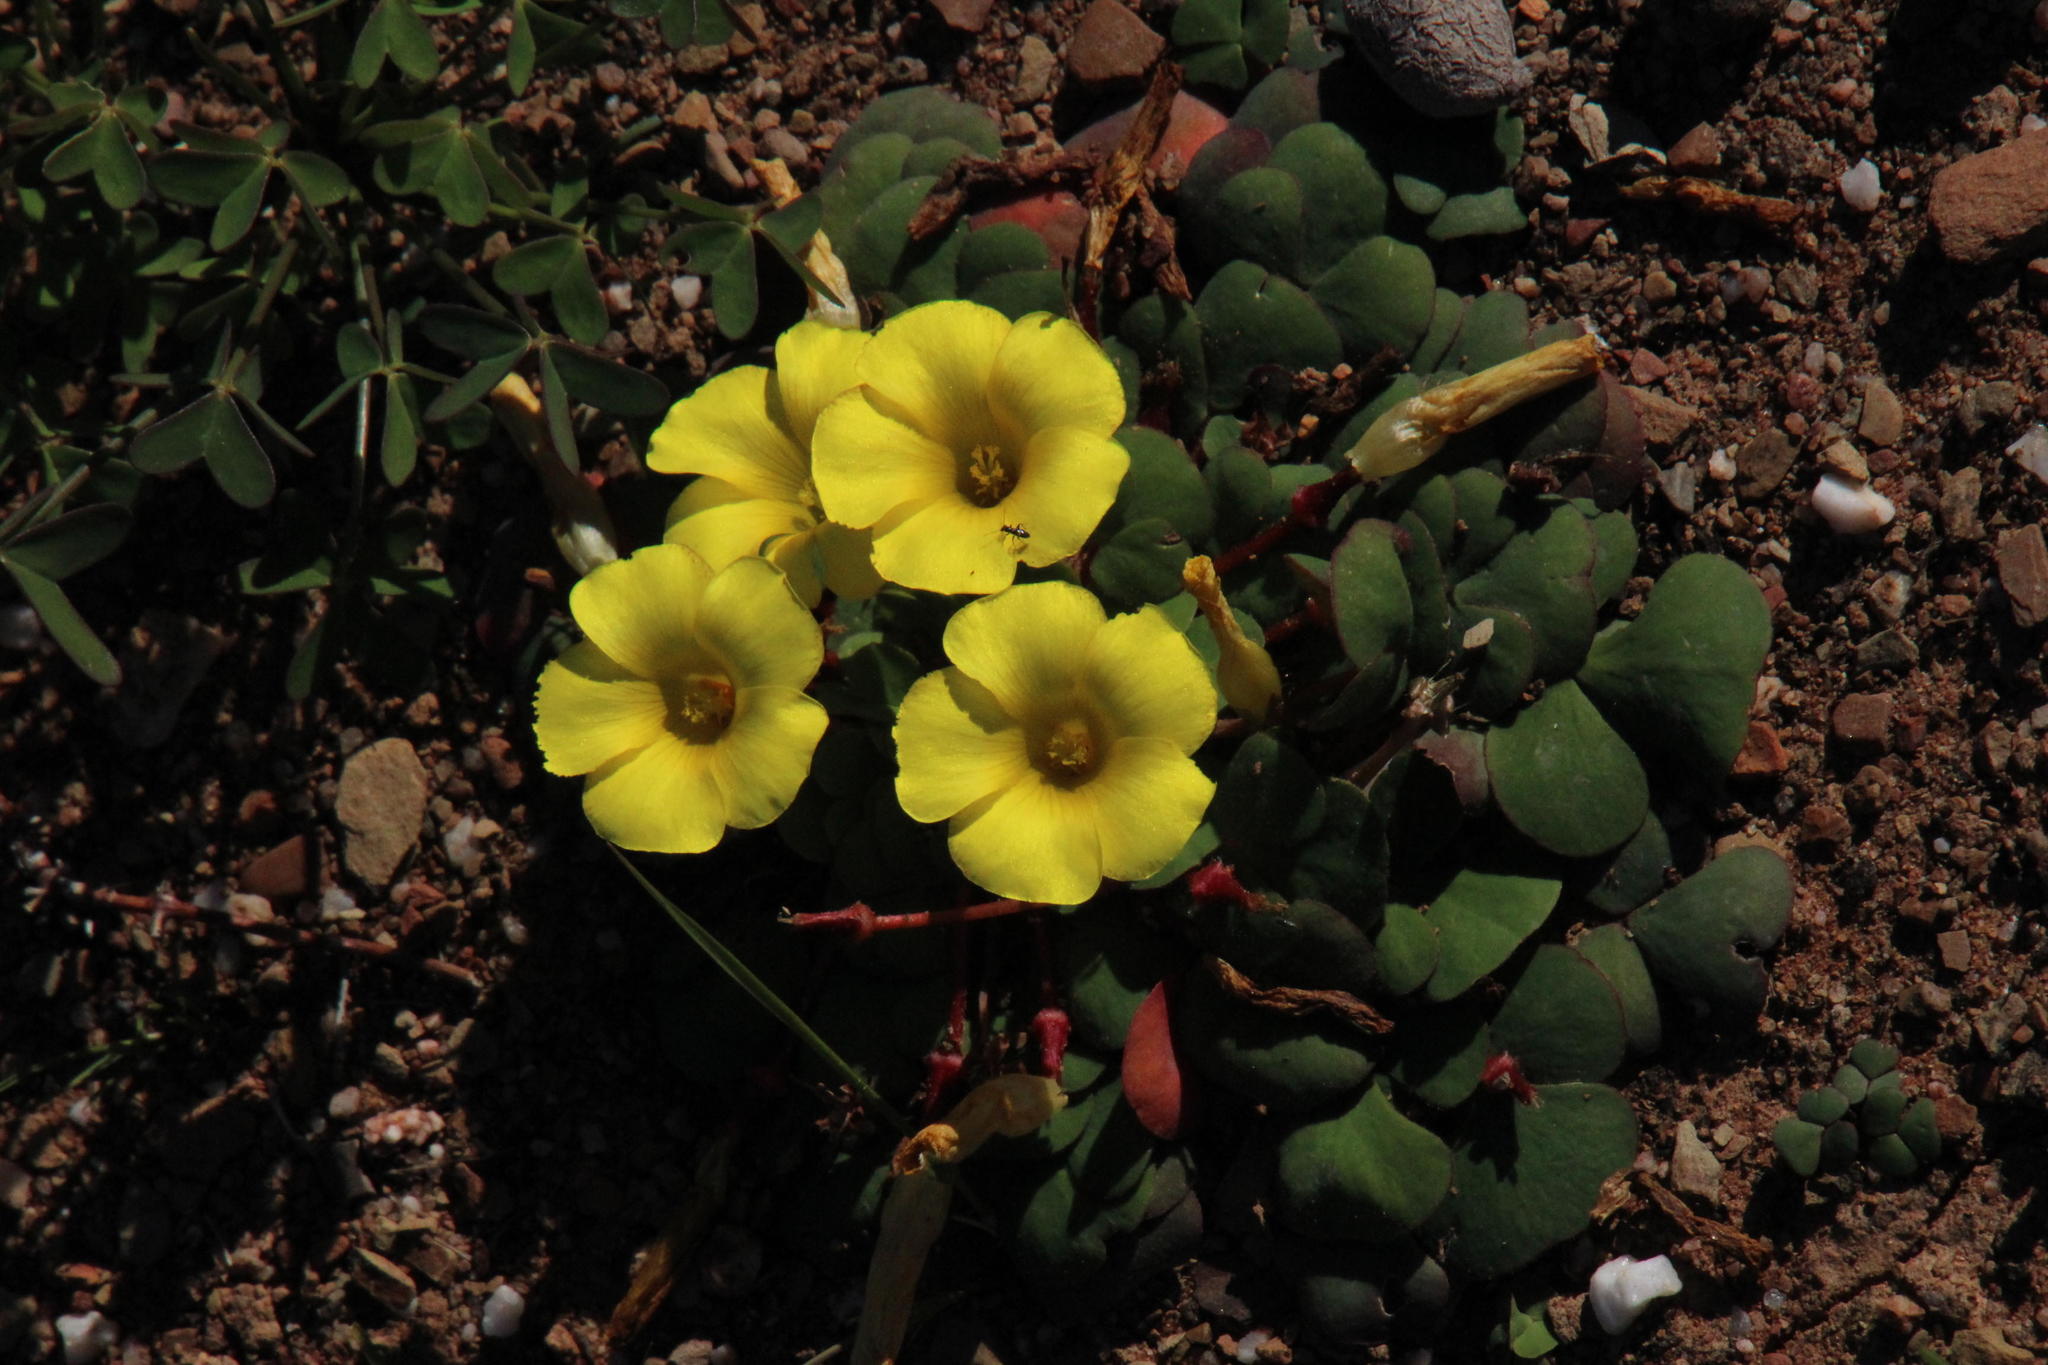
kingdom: Plantae
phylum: Tracheophyta
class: Magnoliopsida
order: Oxalidales
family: Oxalidaceae
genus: Oxalis
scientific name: Oxalis purpurea
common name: Purple woodsorrel
